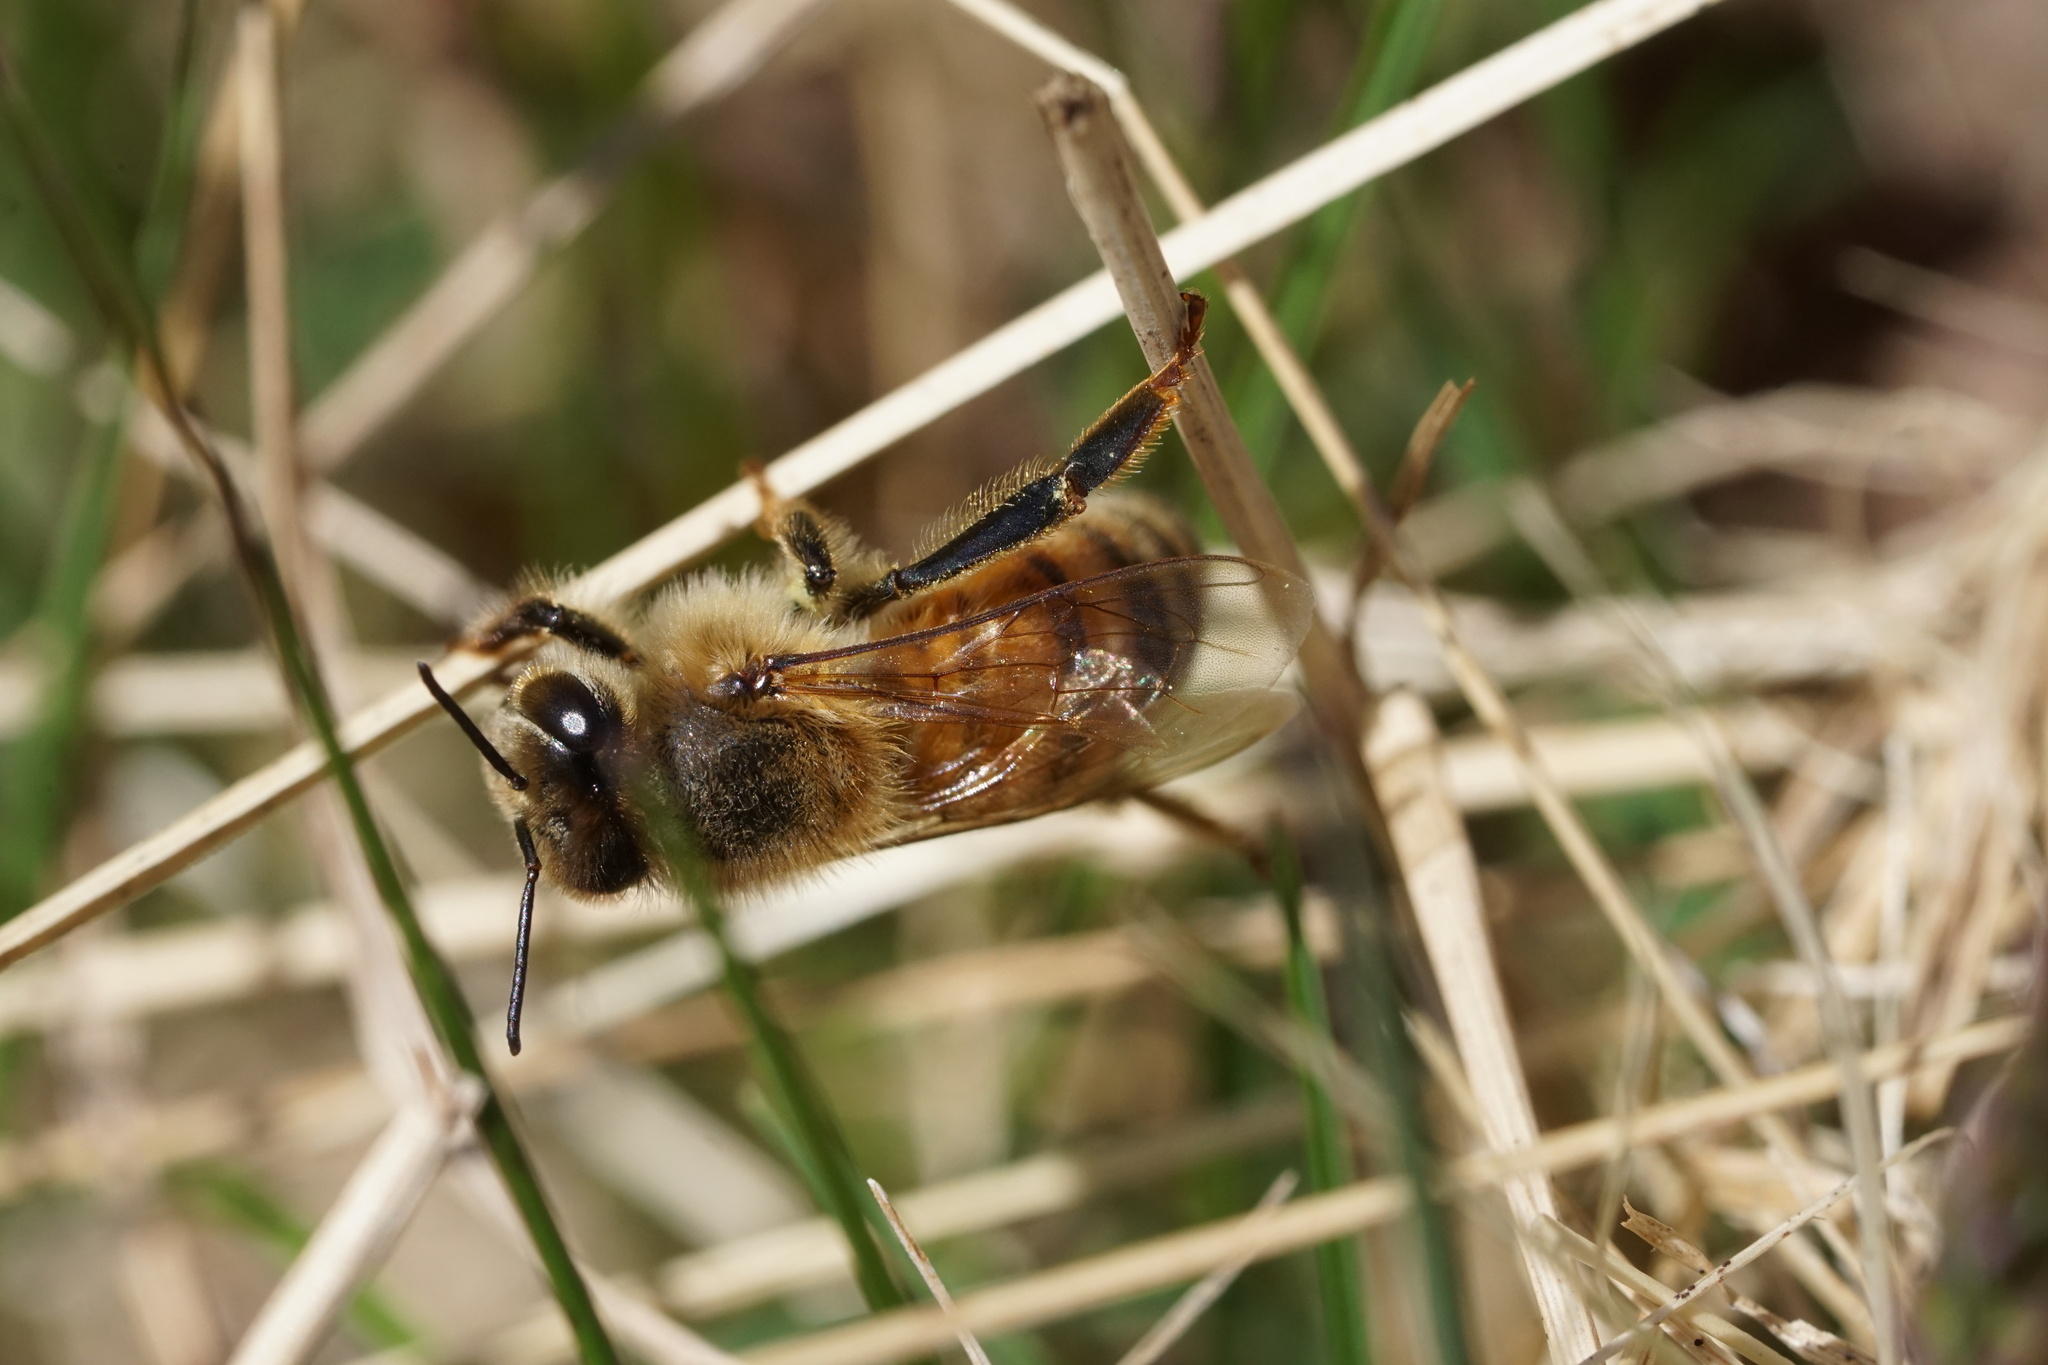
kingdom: Animalia
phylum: Arthropoda
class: Insecta
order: Hymenoptera
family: Apidae
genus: Apis
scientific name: Apis mellifera
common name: Honey bee
